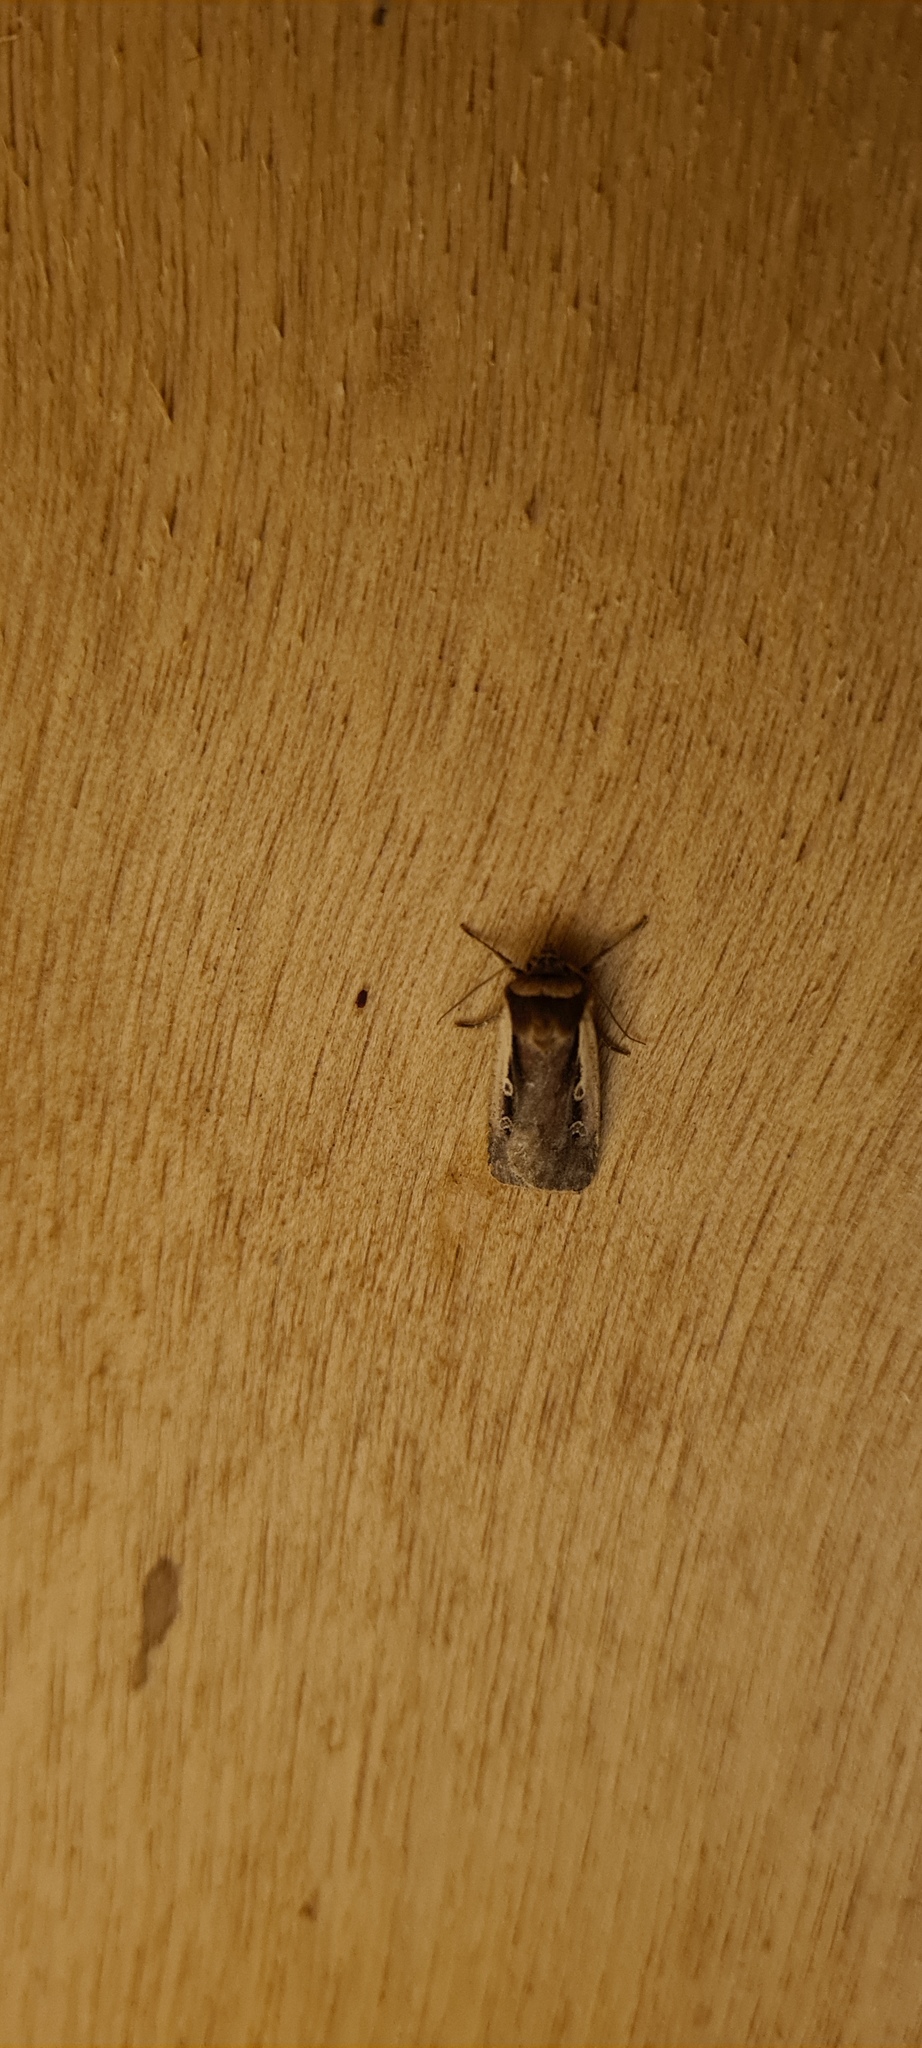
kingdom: Animalia
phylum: Arthropoda
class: Insecta
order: Lepidoptera
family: Noctuidae
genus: Ochropleura
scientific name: Ochropleura plecta
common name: Flame shoulder
